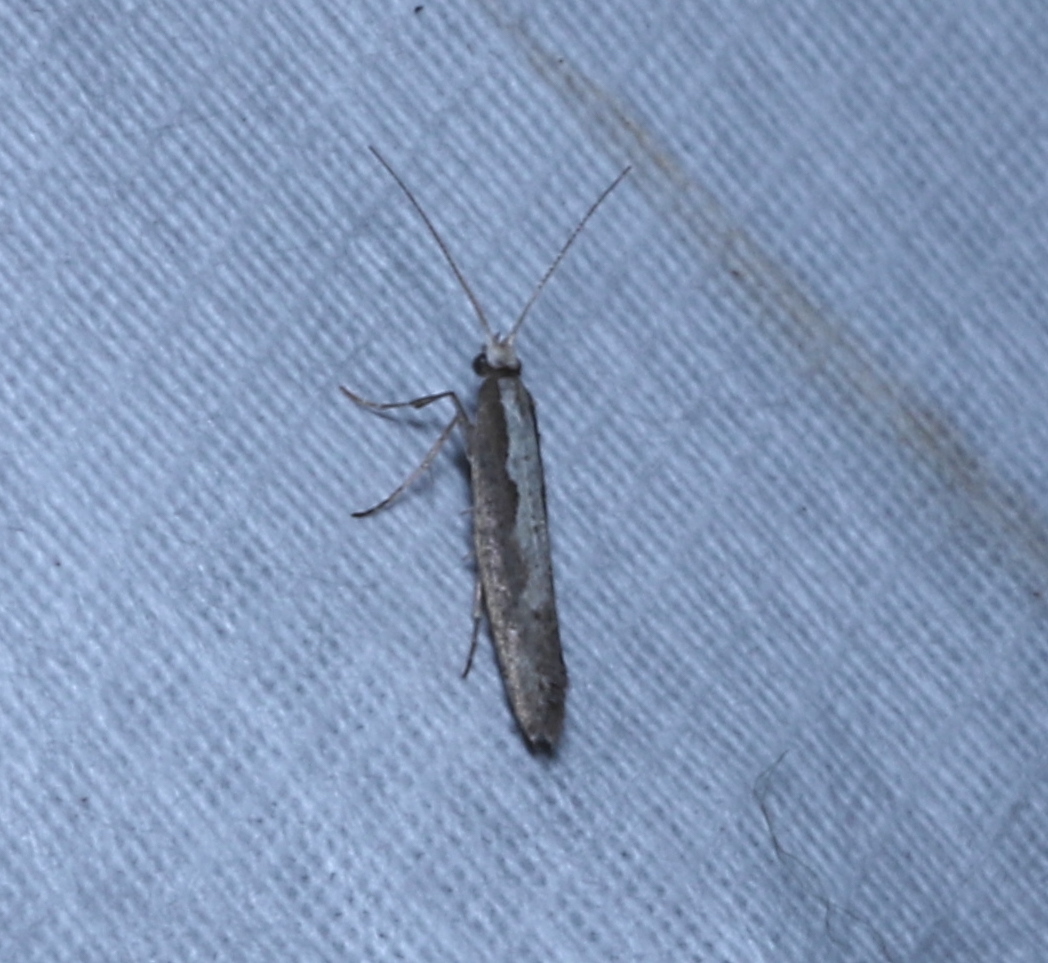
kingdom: Animalia
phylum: Arthropoda
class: Insecta
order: Lepidoptera
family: Plutellidae
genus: Plutella
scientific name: Plutella xylostella
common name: Diamond-back moth
